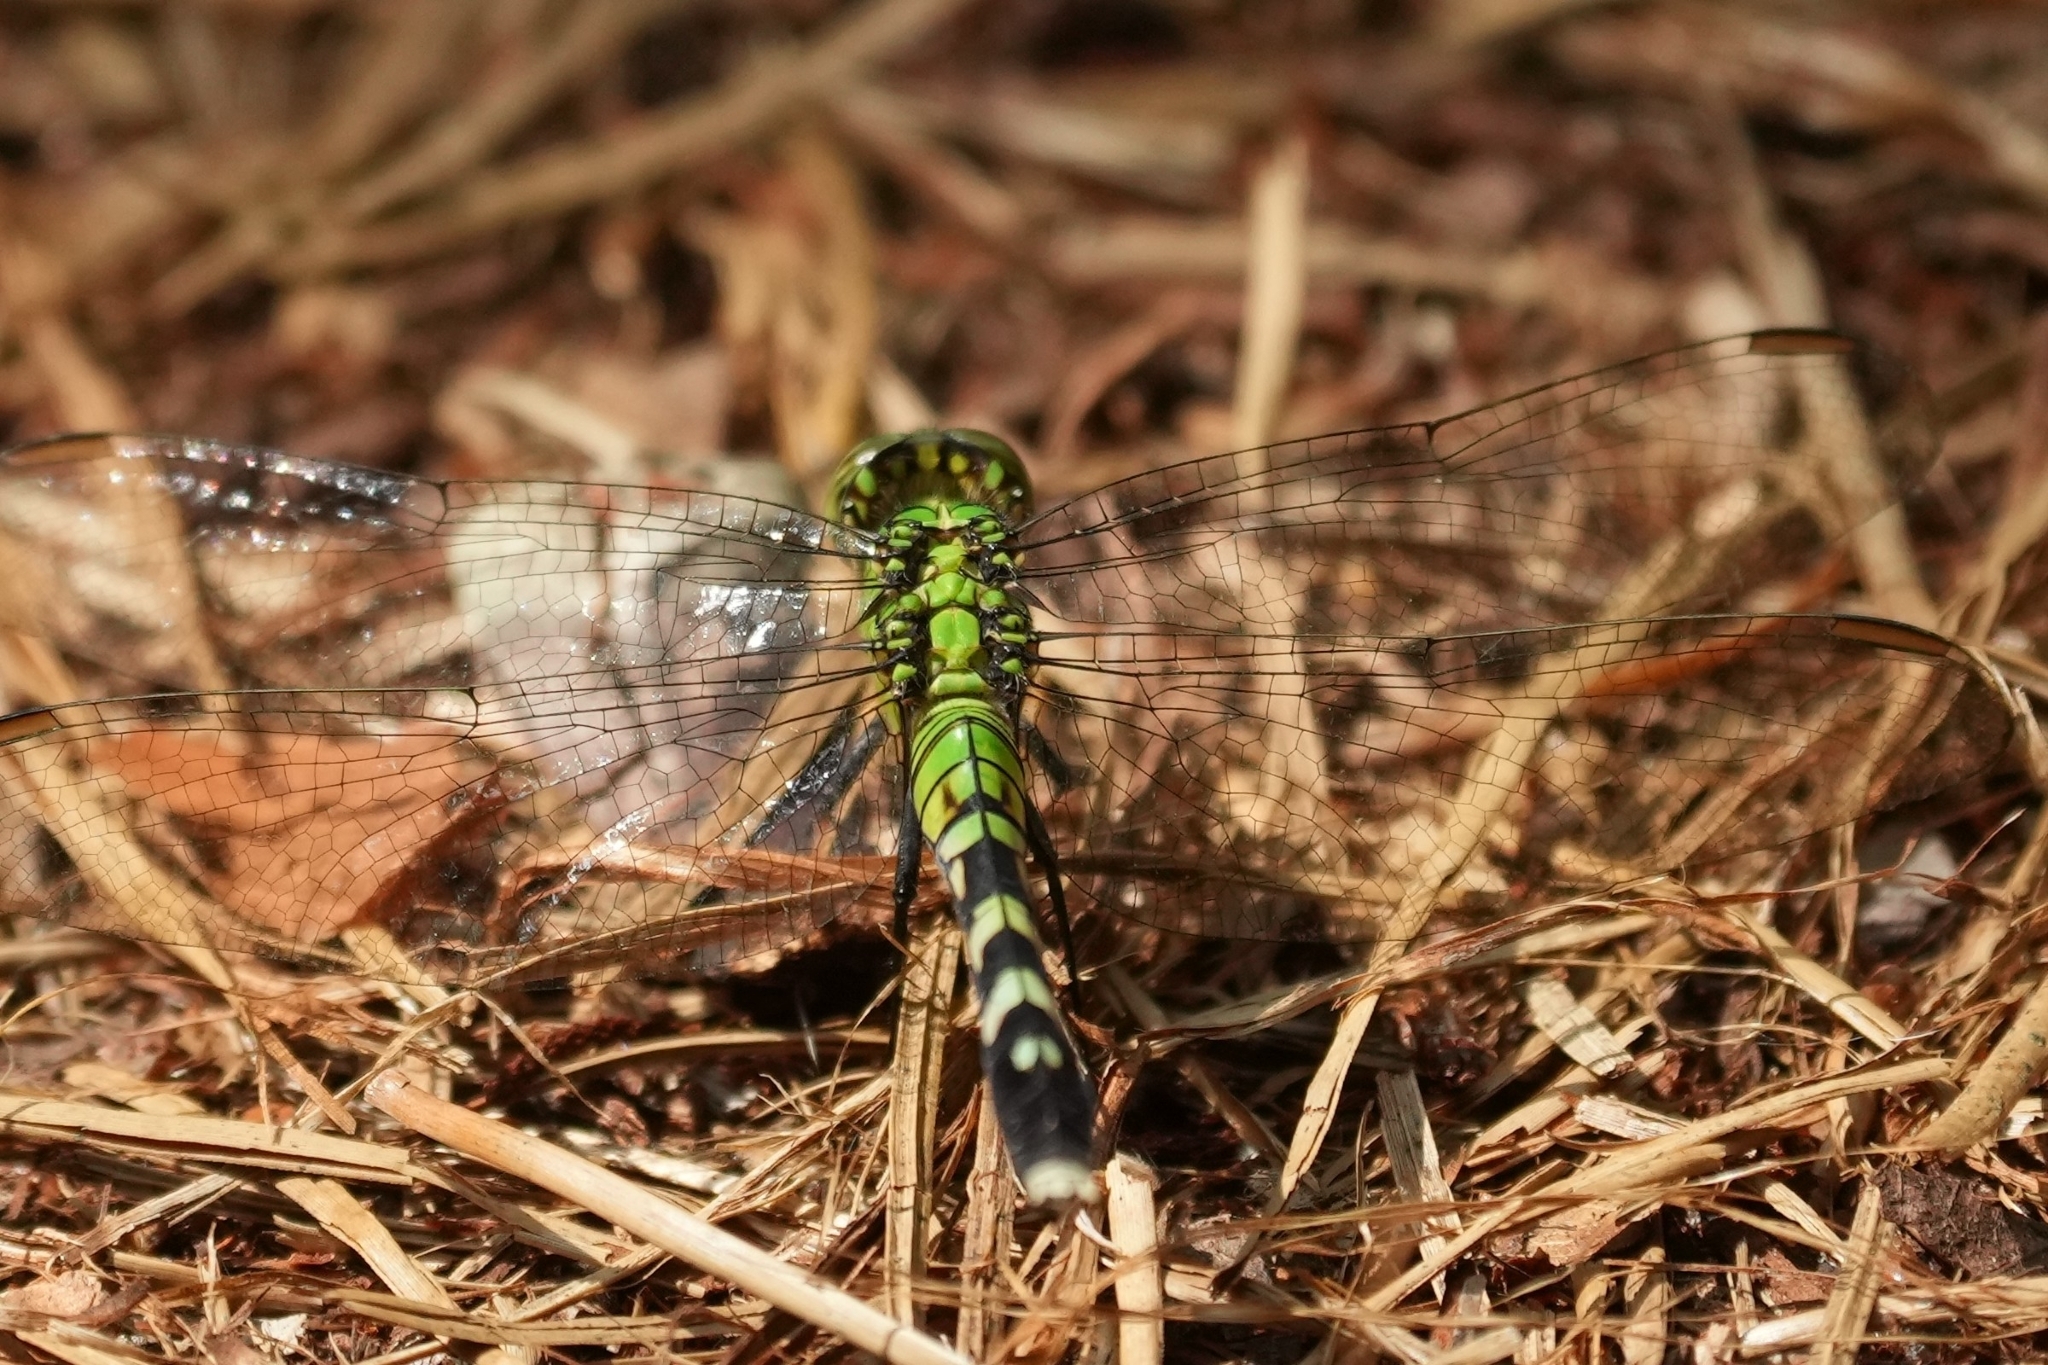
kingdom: Animalia
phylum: Arthropoda
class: Insecta
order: Odonata
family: Libellulidae
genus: Erythemis
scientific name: Erythemis simplicicollis
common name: Eastern pondhawk
